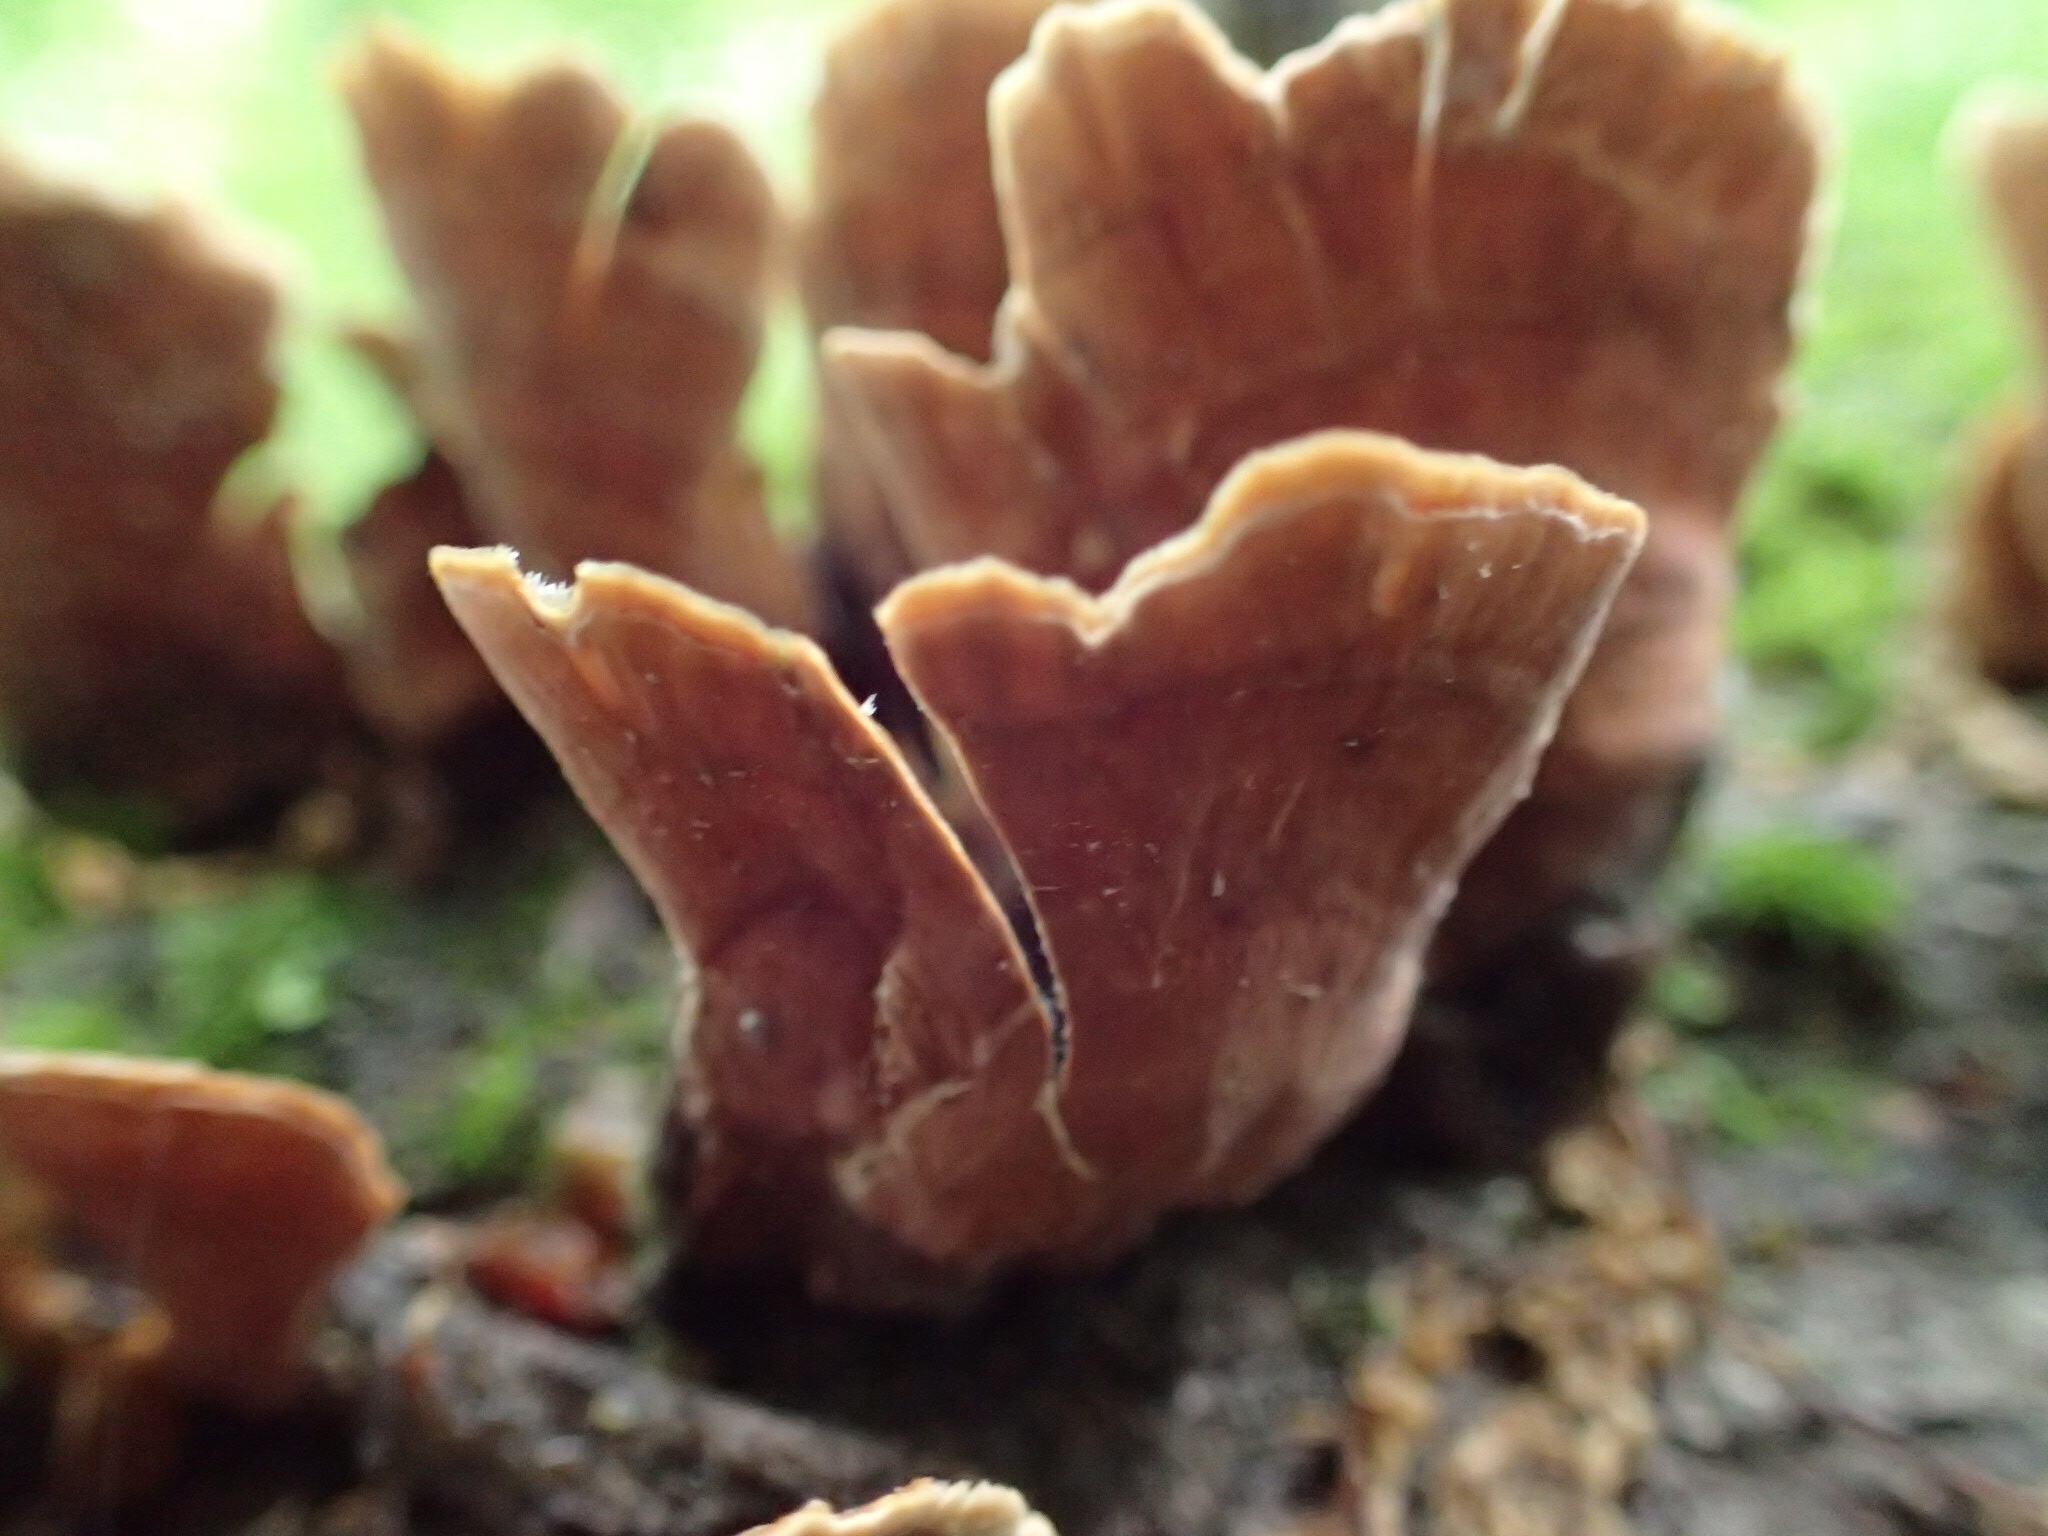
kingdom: Fungi
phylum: Basidiomycota
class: Agaricomycetes
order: Russulales
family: Stereaceae
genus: Stereum
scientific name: Stereum ostrea
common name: False turkeytail
